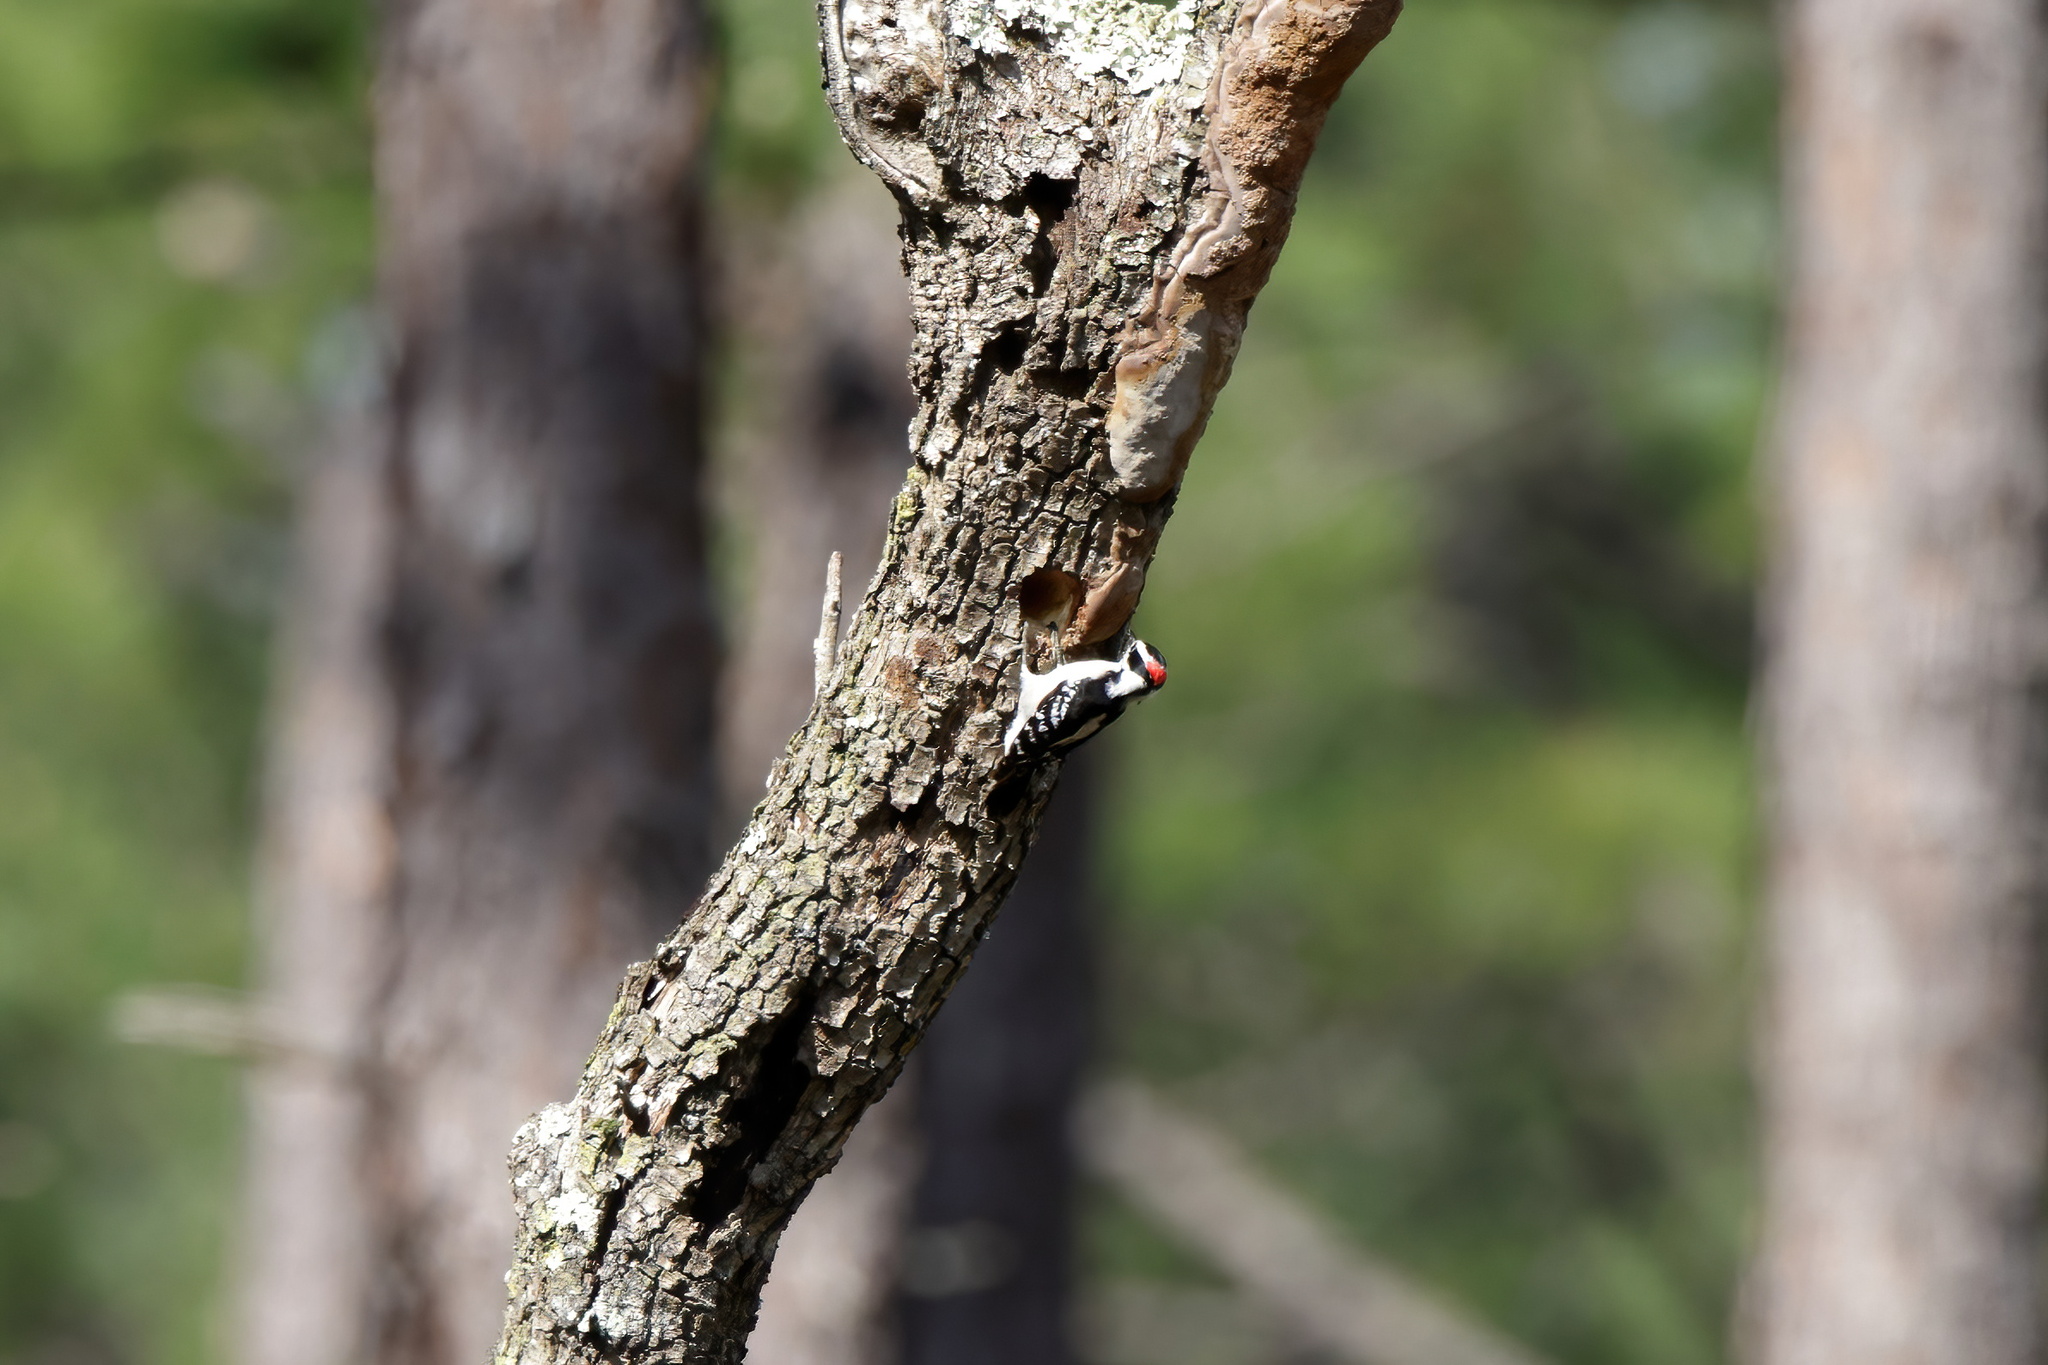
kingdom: Animalia
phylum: Chordata
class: Aves
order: Piciformes
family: Picidae
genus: Dryobates
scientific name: Dryobates pubescens
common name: Downy woodpecker
